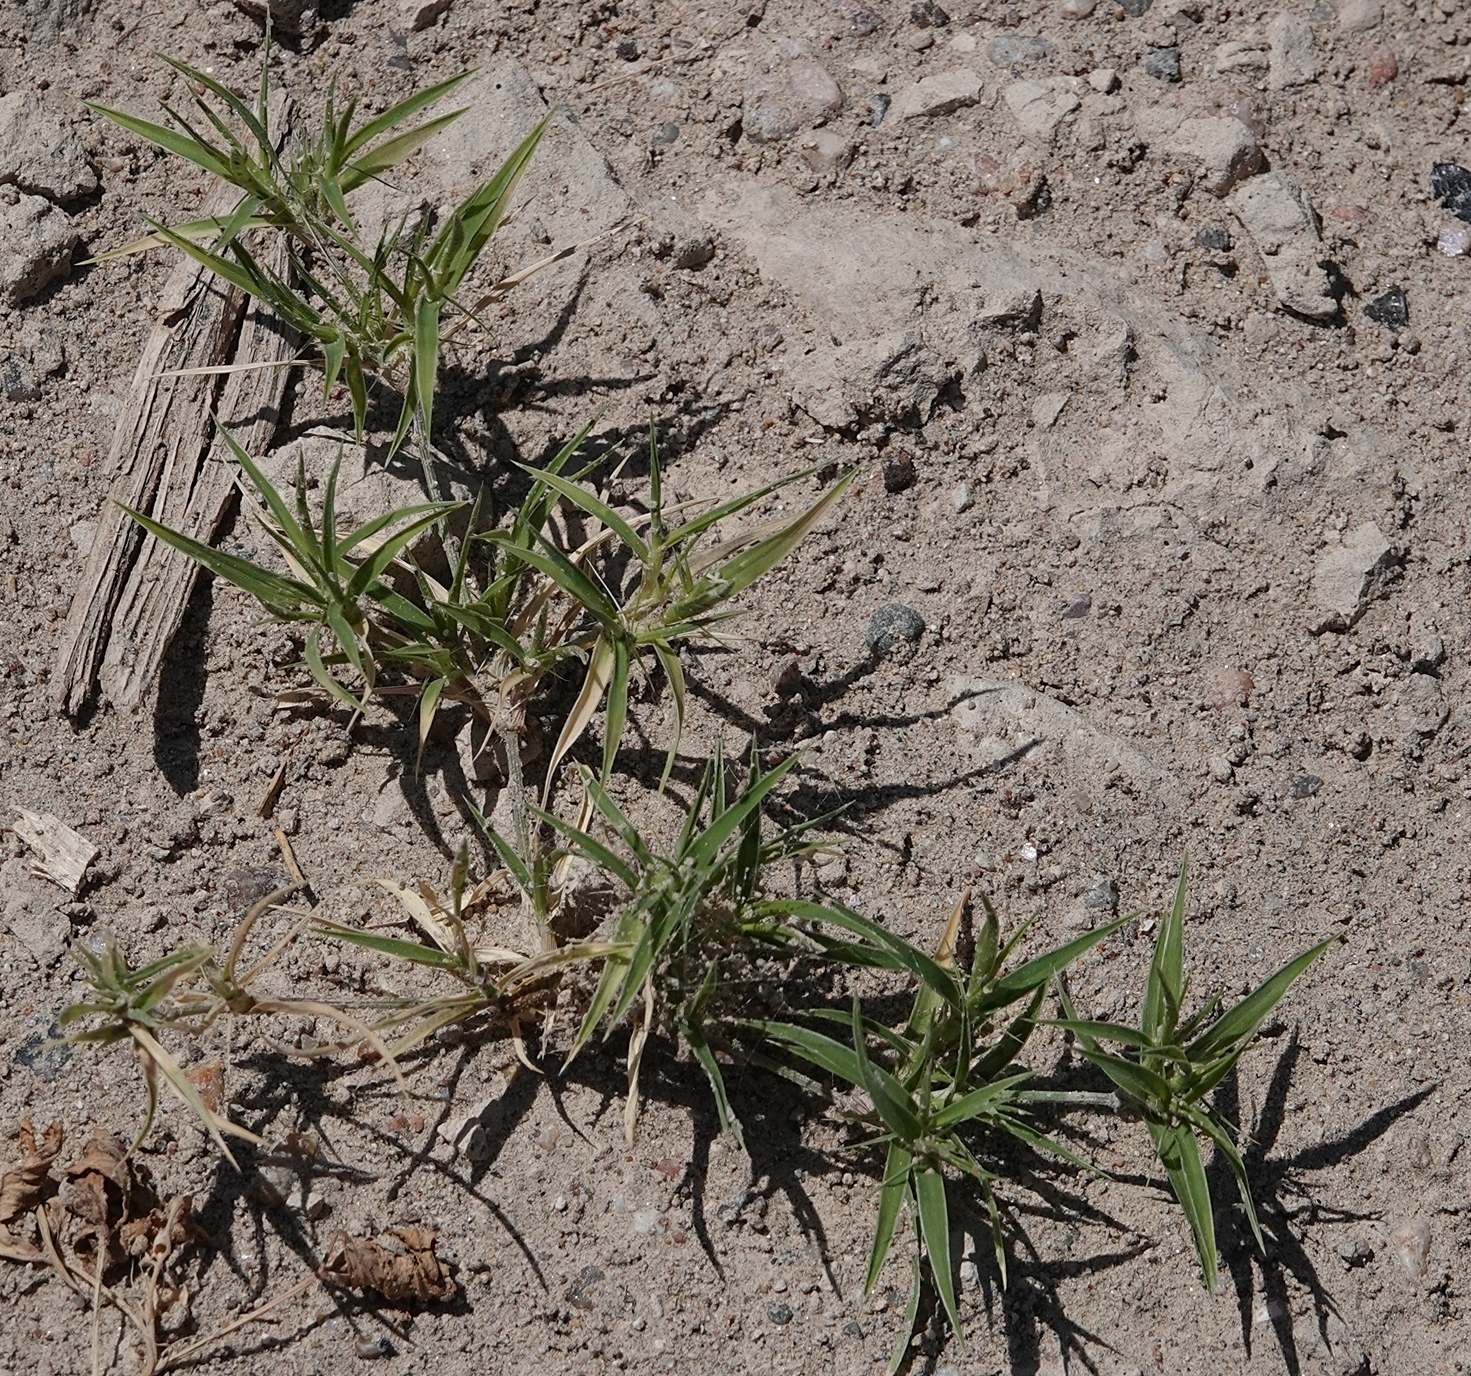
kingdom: Plantae
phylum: Tracheophyta
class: Liliopsida
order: Poales
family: Poaceae
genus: Munroa
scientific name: Munroa squarrosa
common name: False buffalo grass
